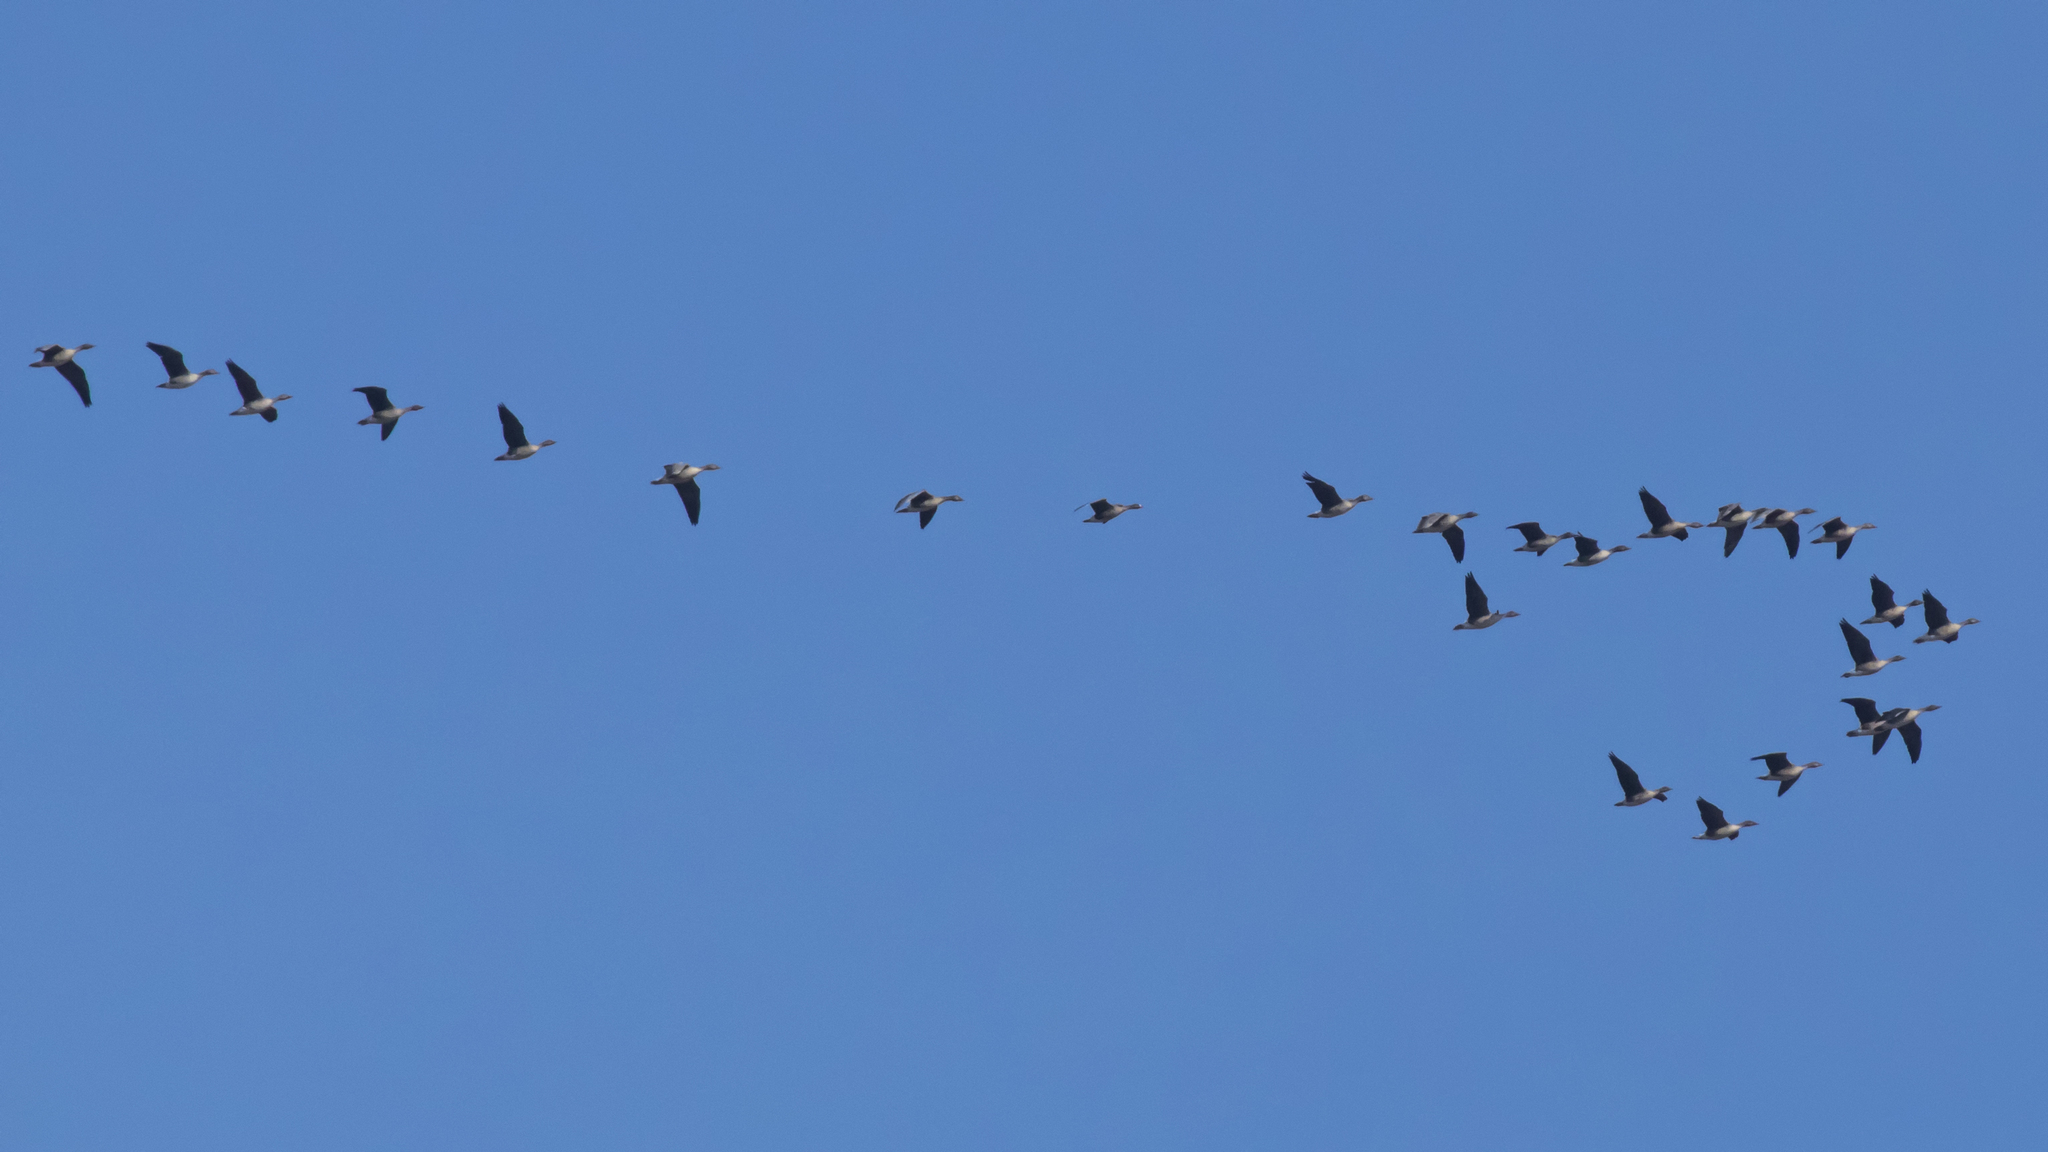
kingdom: Animalia
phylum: Chordata
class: Aves
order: Anseriformes
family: Anatidae
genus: Anser
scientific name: Anser fabalis
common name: Bean goose
